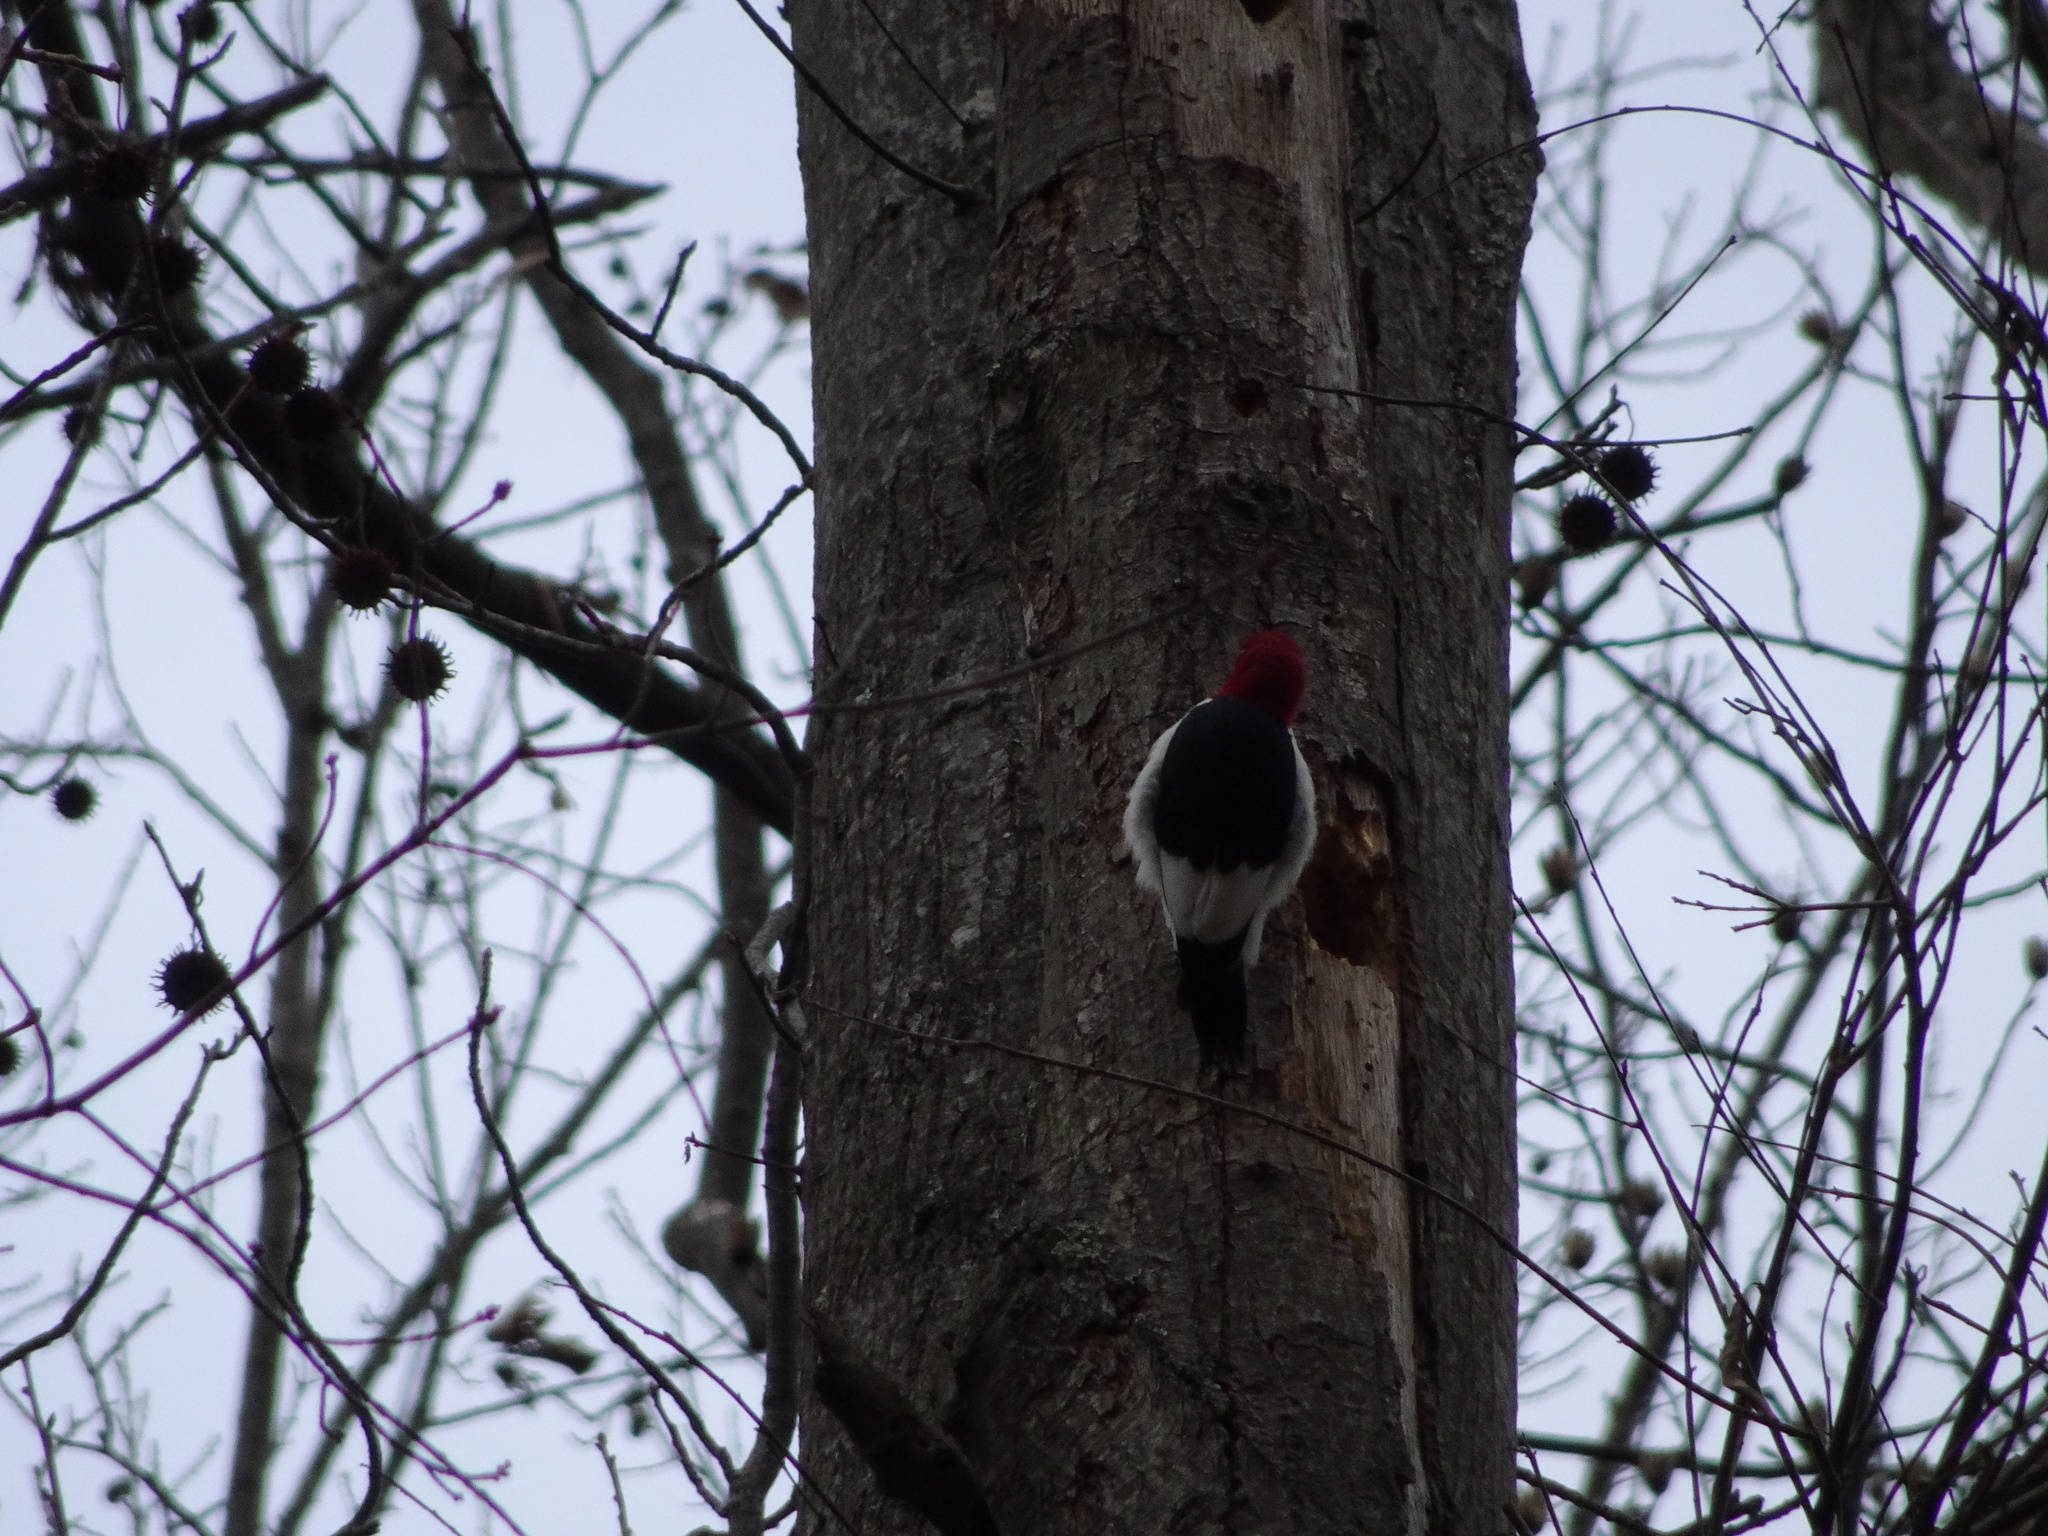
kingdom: Animalia
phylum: Chordata
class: Aves
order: Piciformes
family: Picidae
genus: Melanerpes
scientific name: Melanerpes erythrocephalus
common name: Red-headed woodpecker
